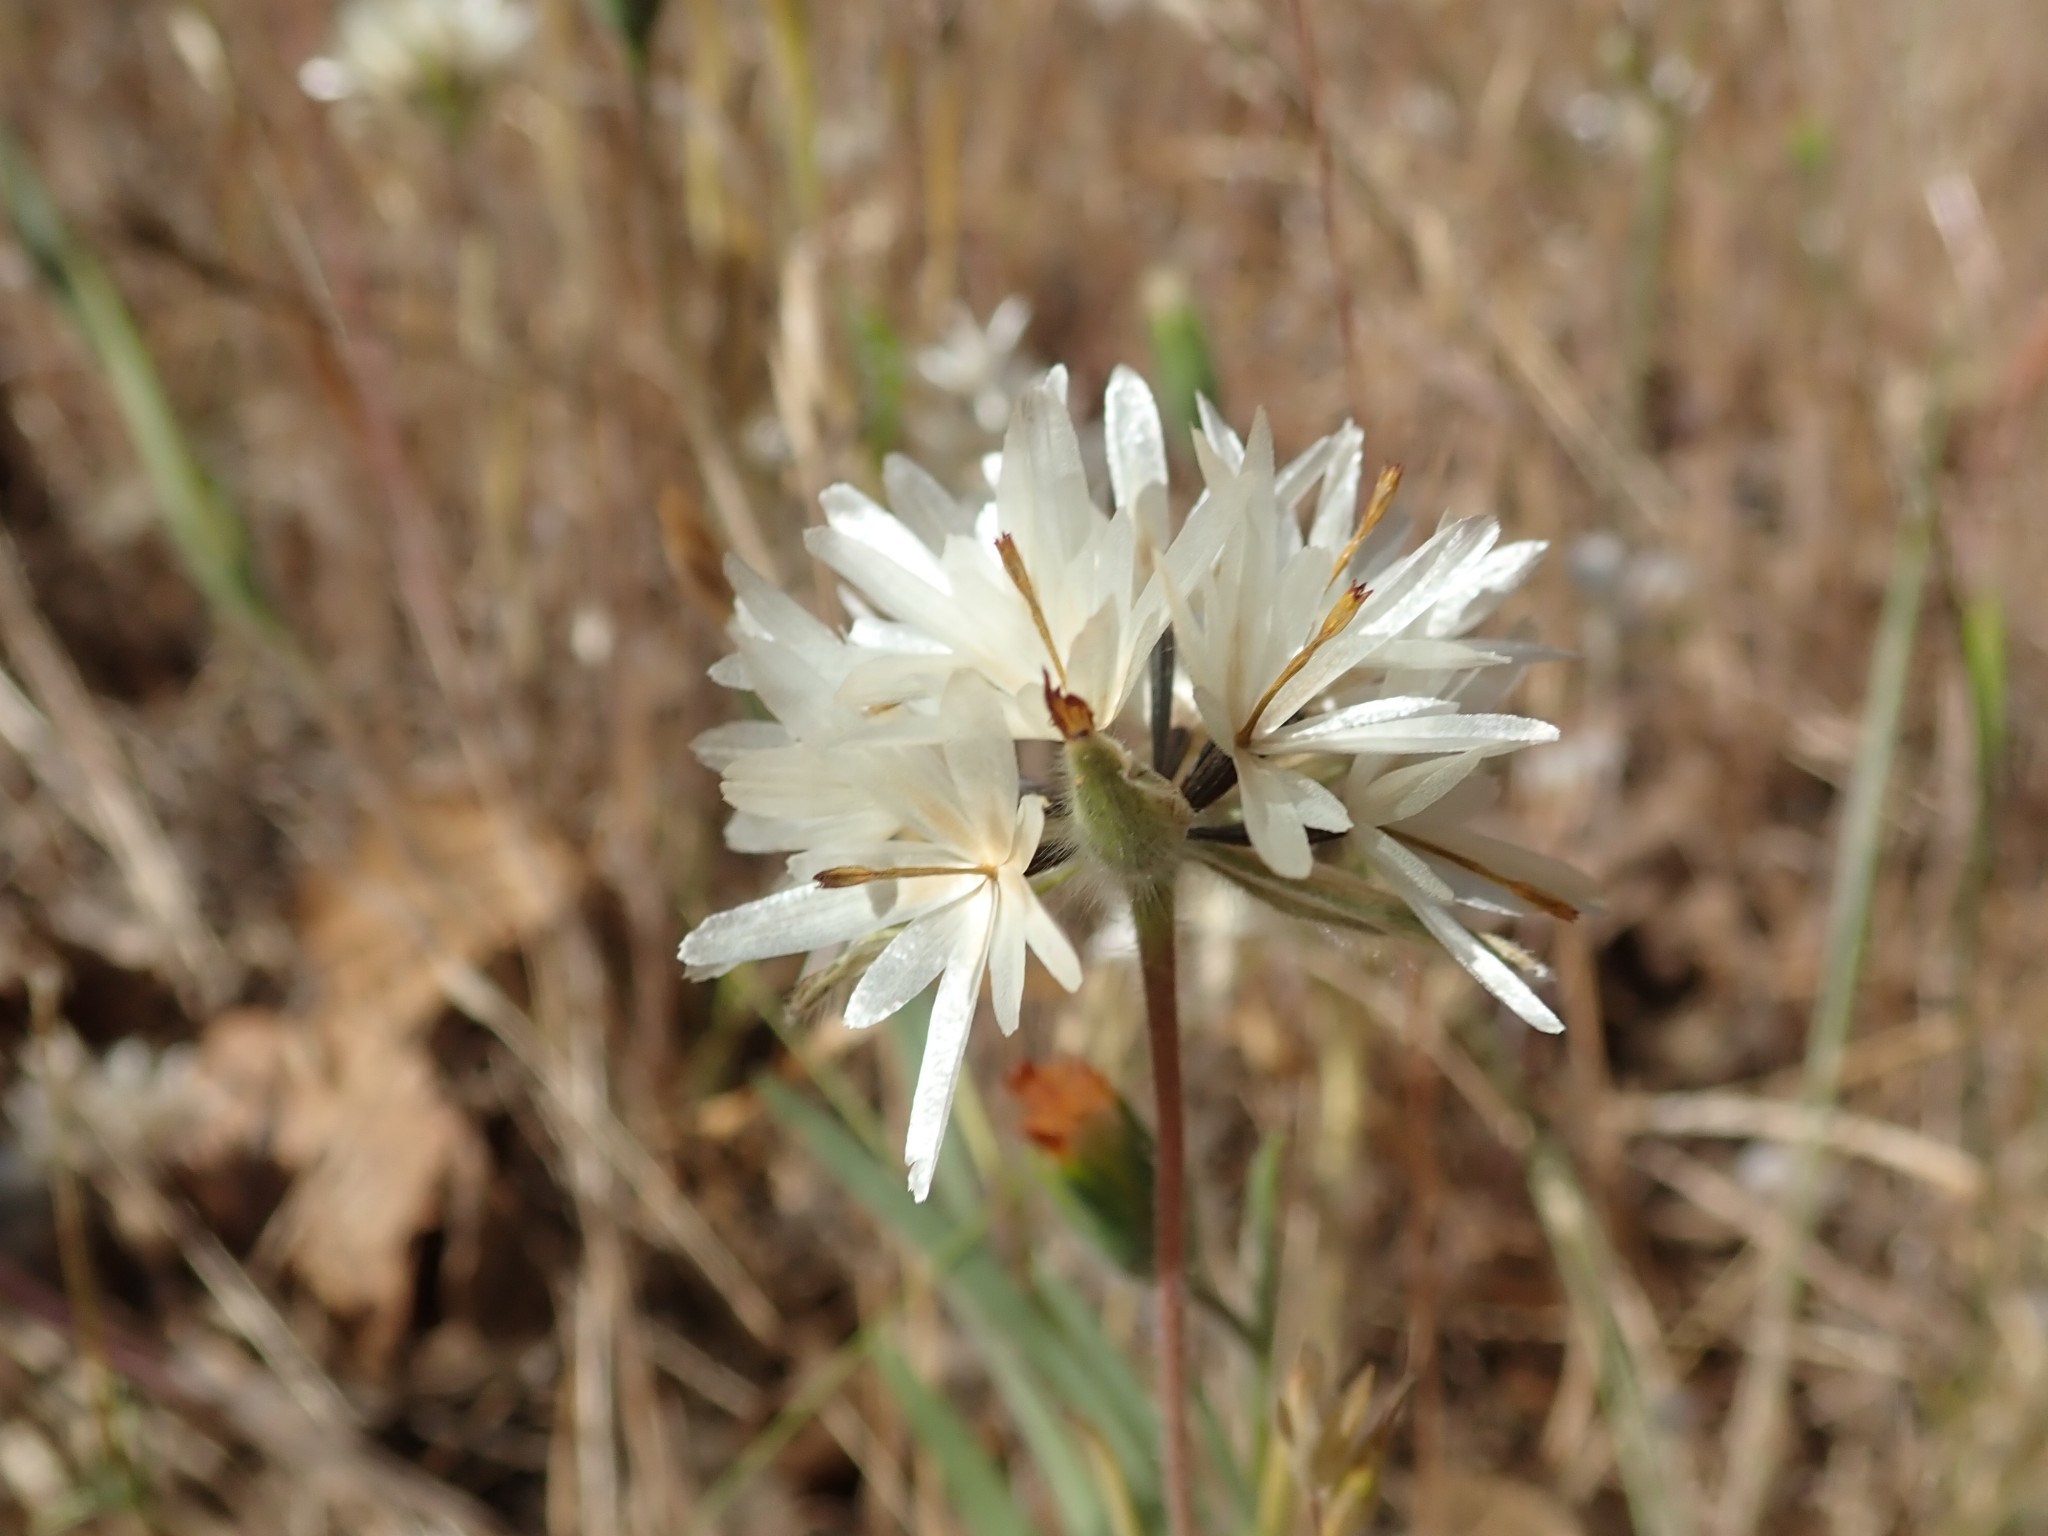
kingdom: Plantae
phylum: Tracheophyta
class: Magnoliopsida
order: Asterales
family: Asteraceae
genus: Achyrachaena
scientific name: Achyrachaena mollis
